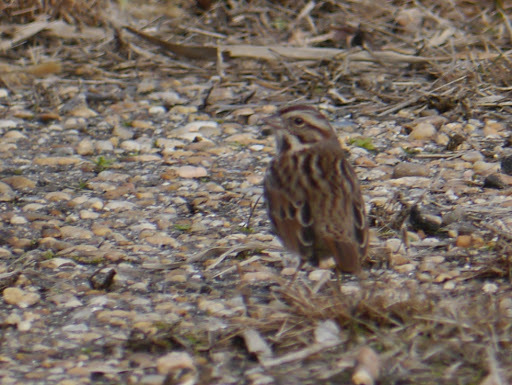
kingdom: Animalia
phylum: Chordata
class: Aves
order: Passeriformes
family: Passerellidae
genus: Melospiza
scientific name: Melospiza melodia
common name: Song sparrow
